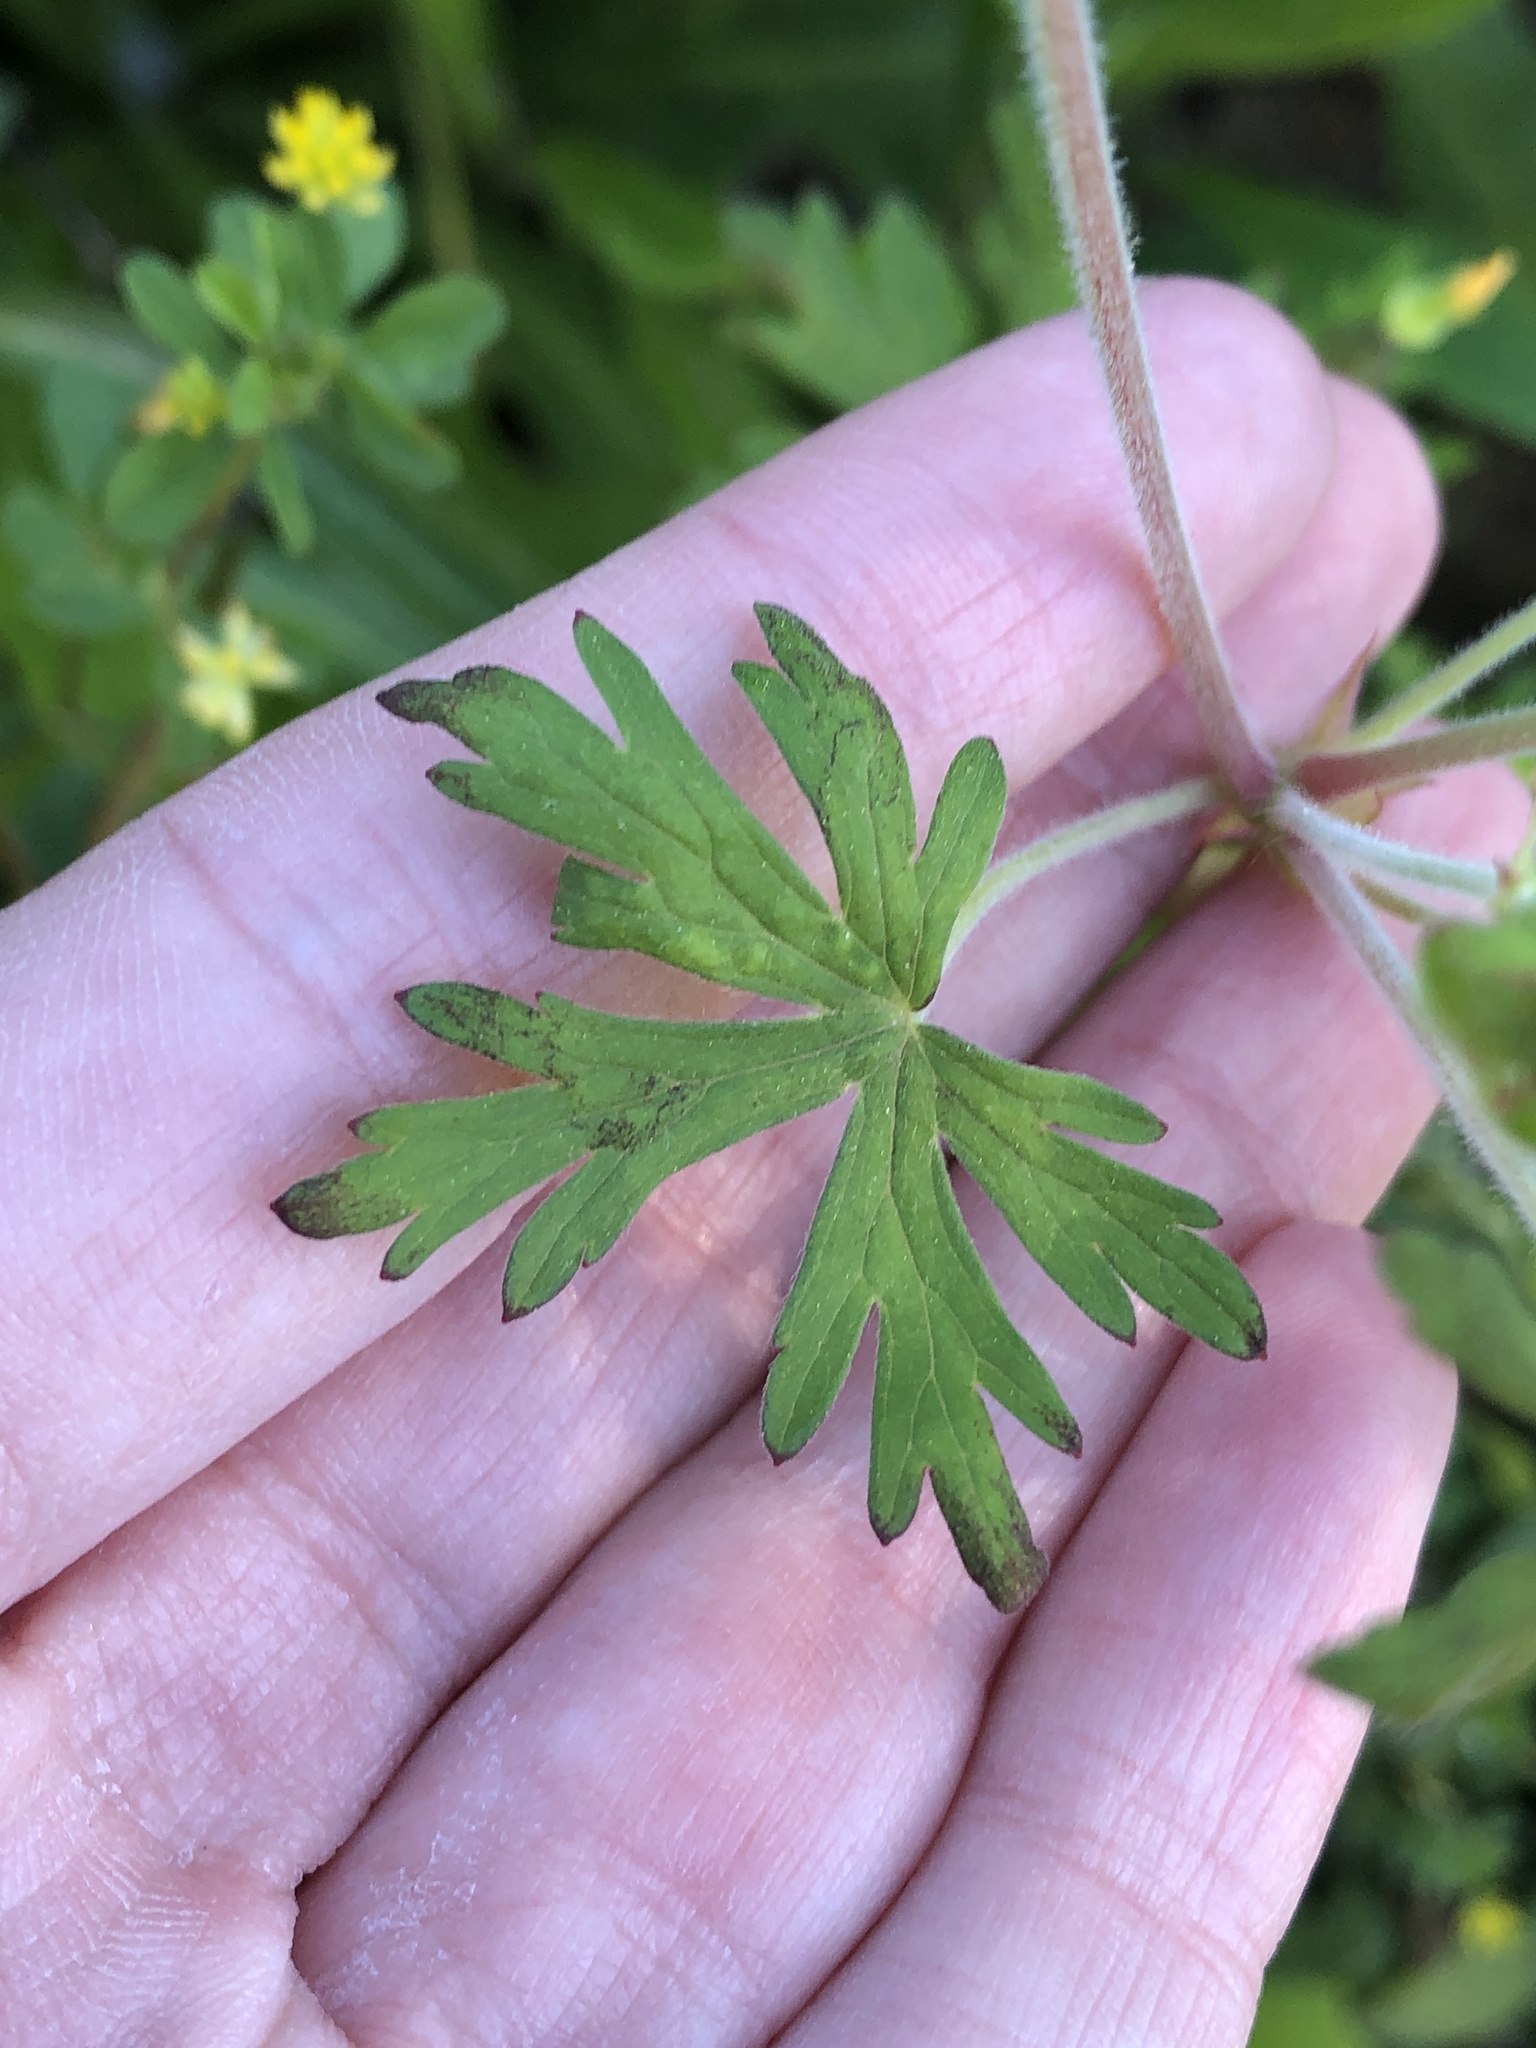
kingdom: Plantae
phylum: Tracheophyta
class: Magnoliopsida
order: Geraniales
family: Geraniaceae
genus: Geranium
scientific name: Geranium carolinianum
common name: Carolina crane's-bill
